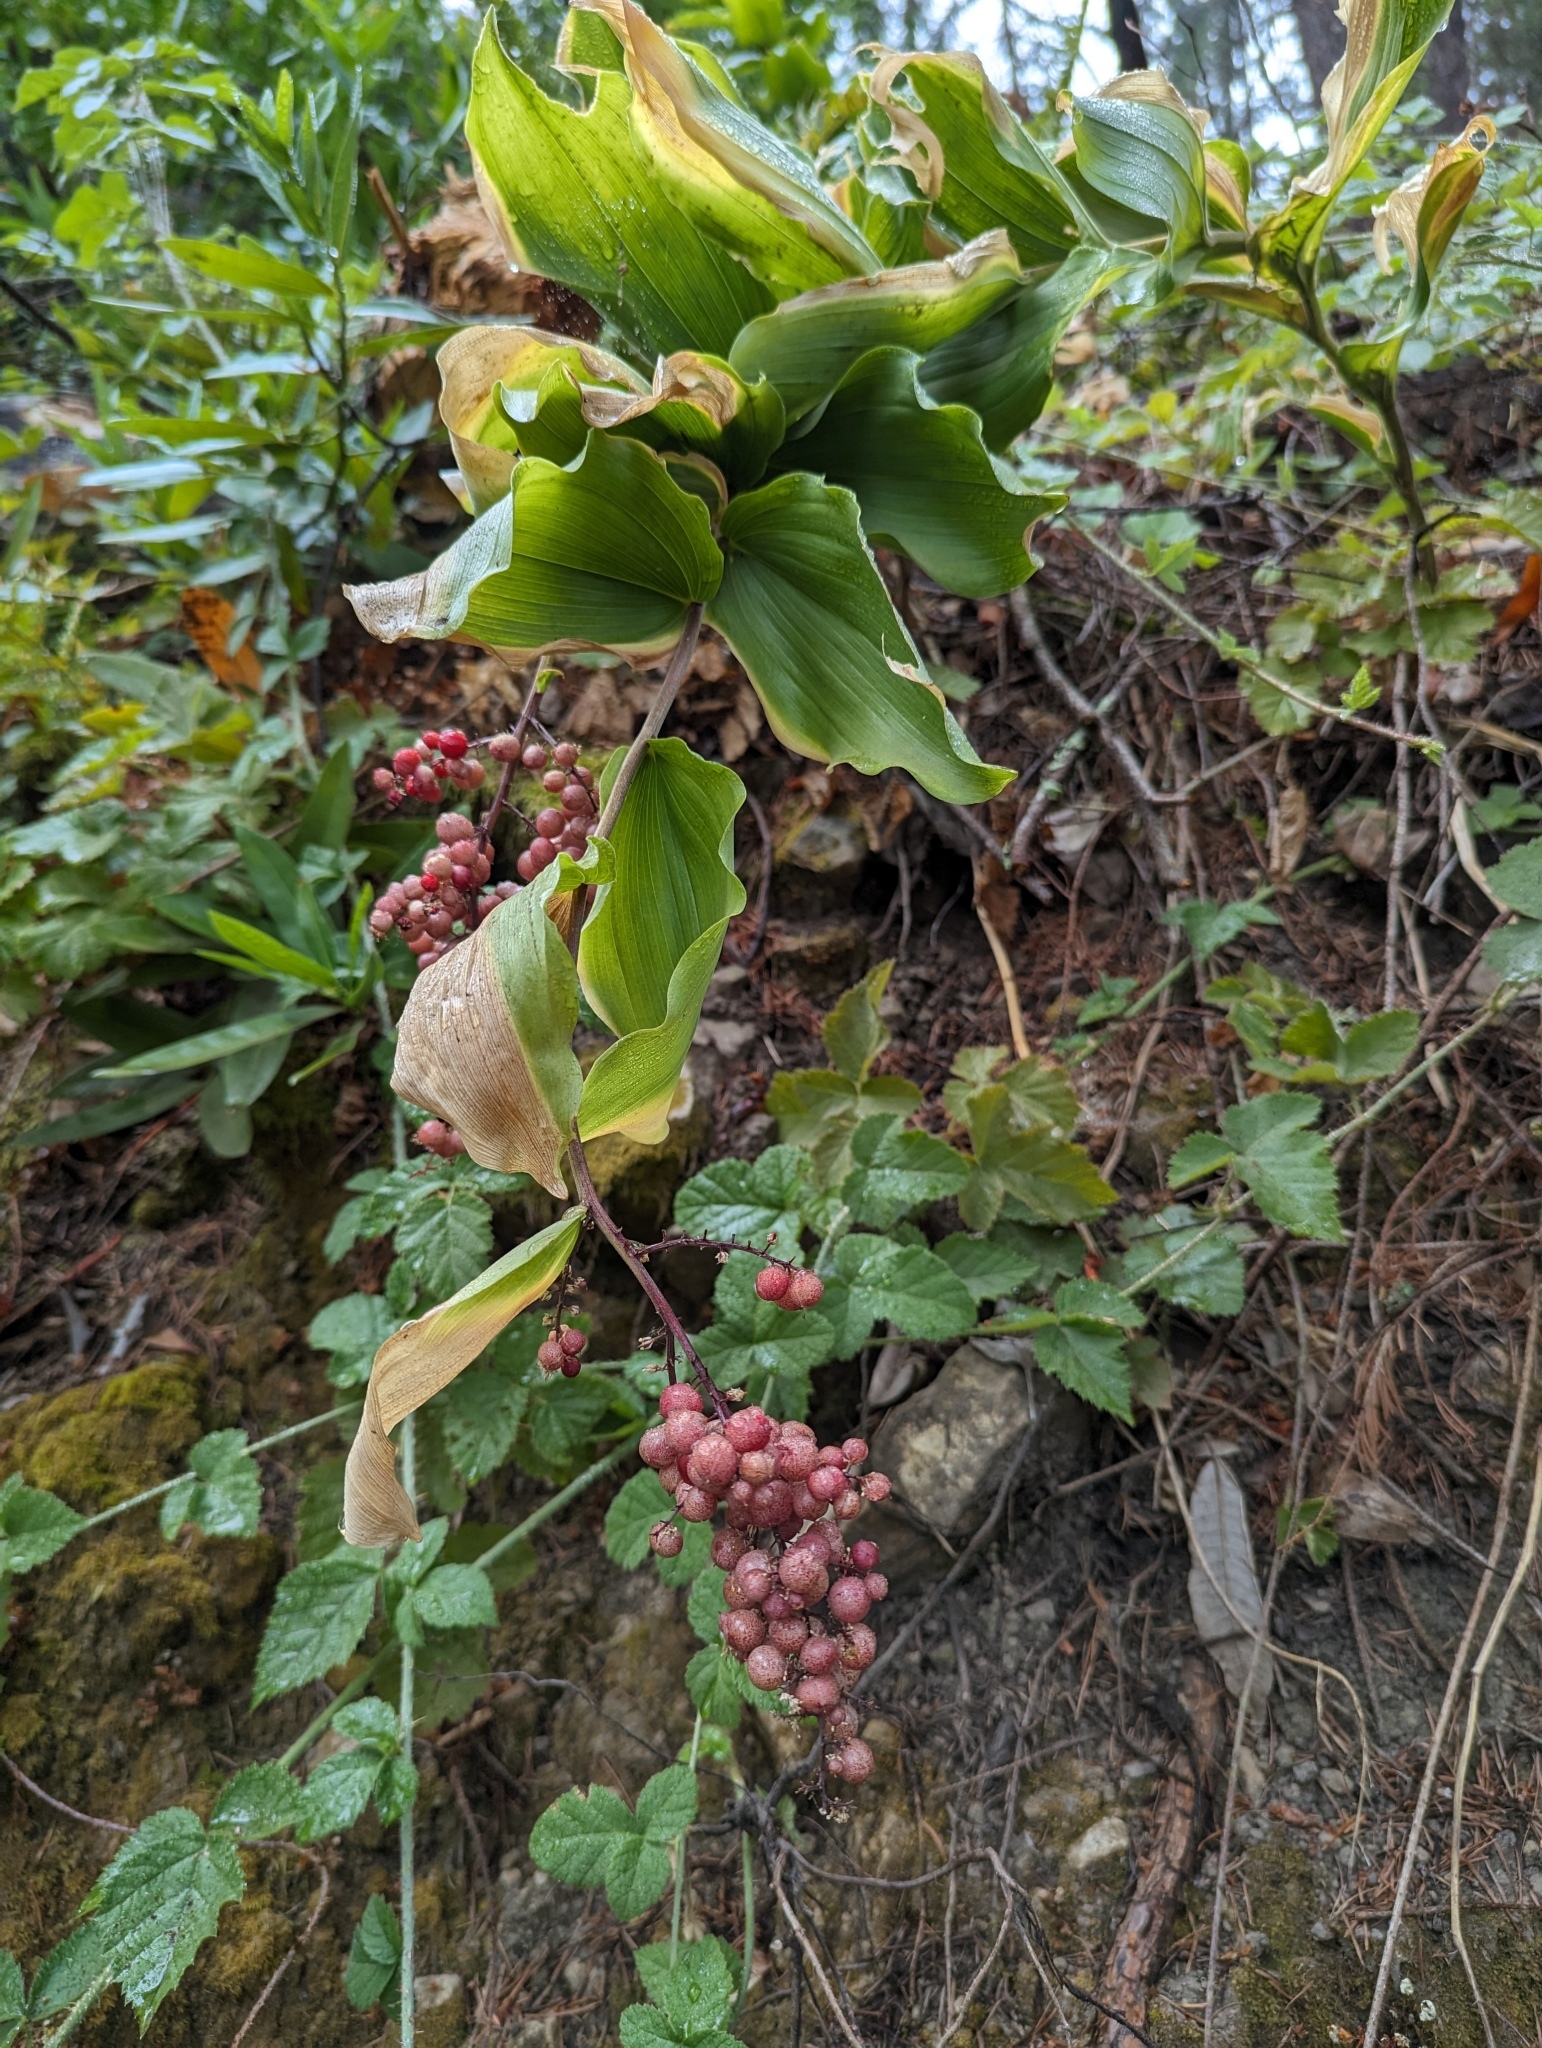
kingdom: Plantae
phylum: Tracheophyta
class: Liliopsida
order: Asparagales
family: Asparagaceae
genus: Maianthemum
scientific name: Maianthemum racemosum
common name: False spikenard
